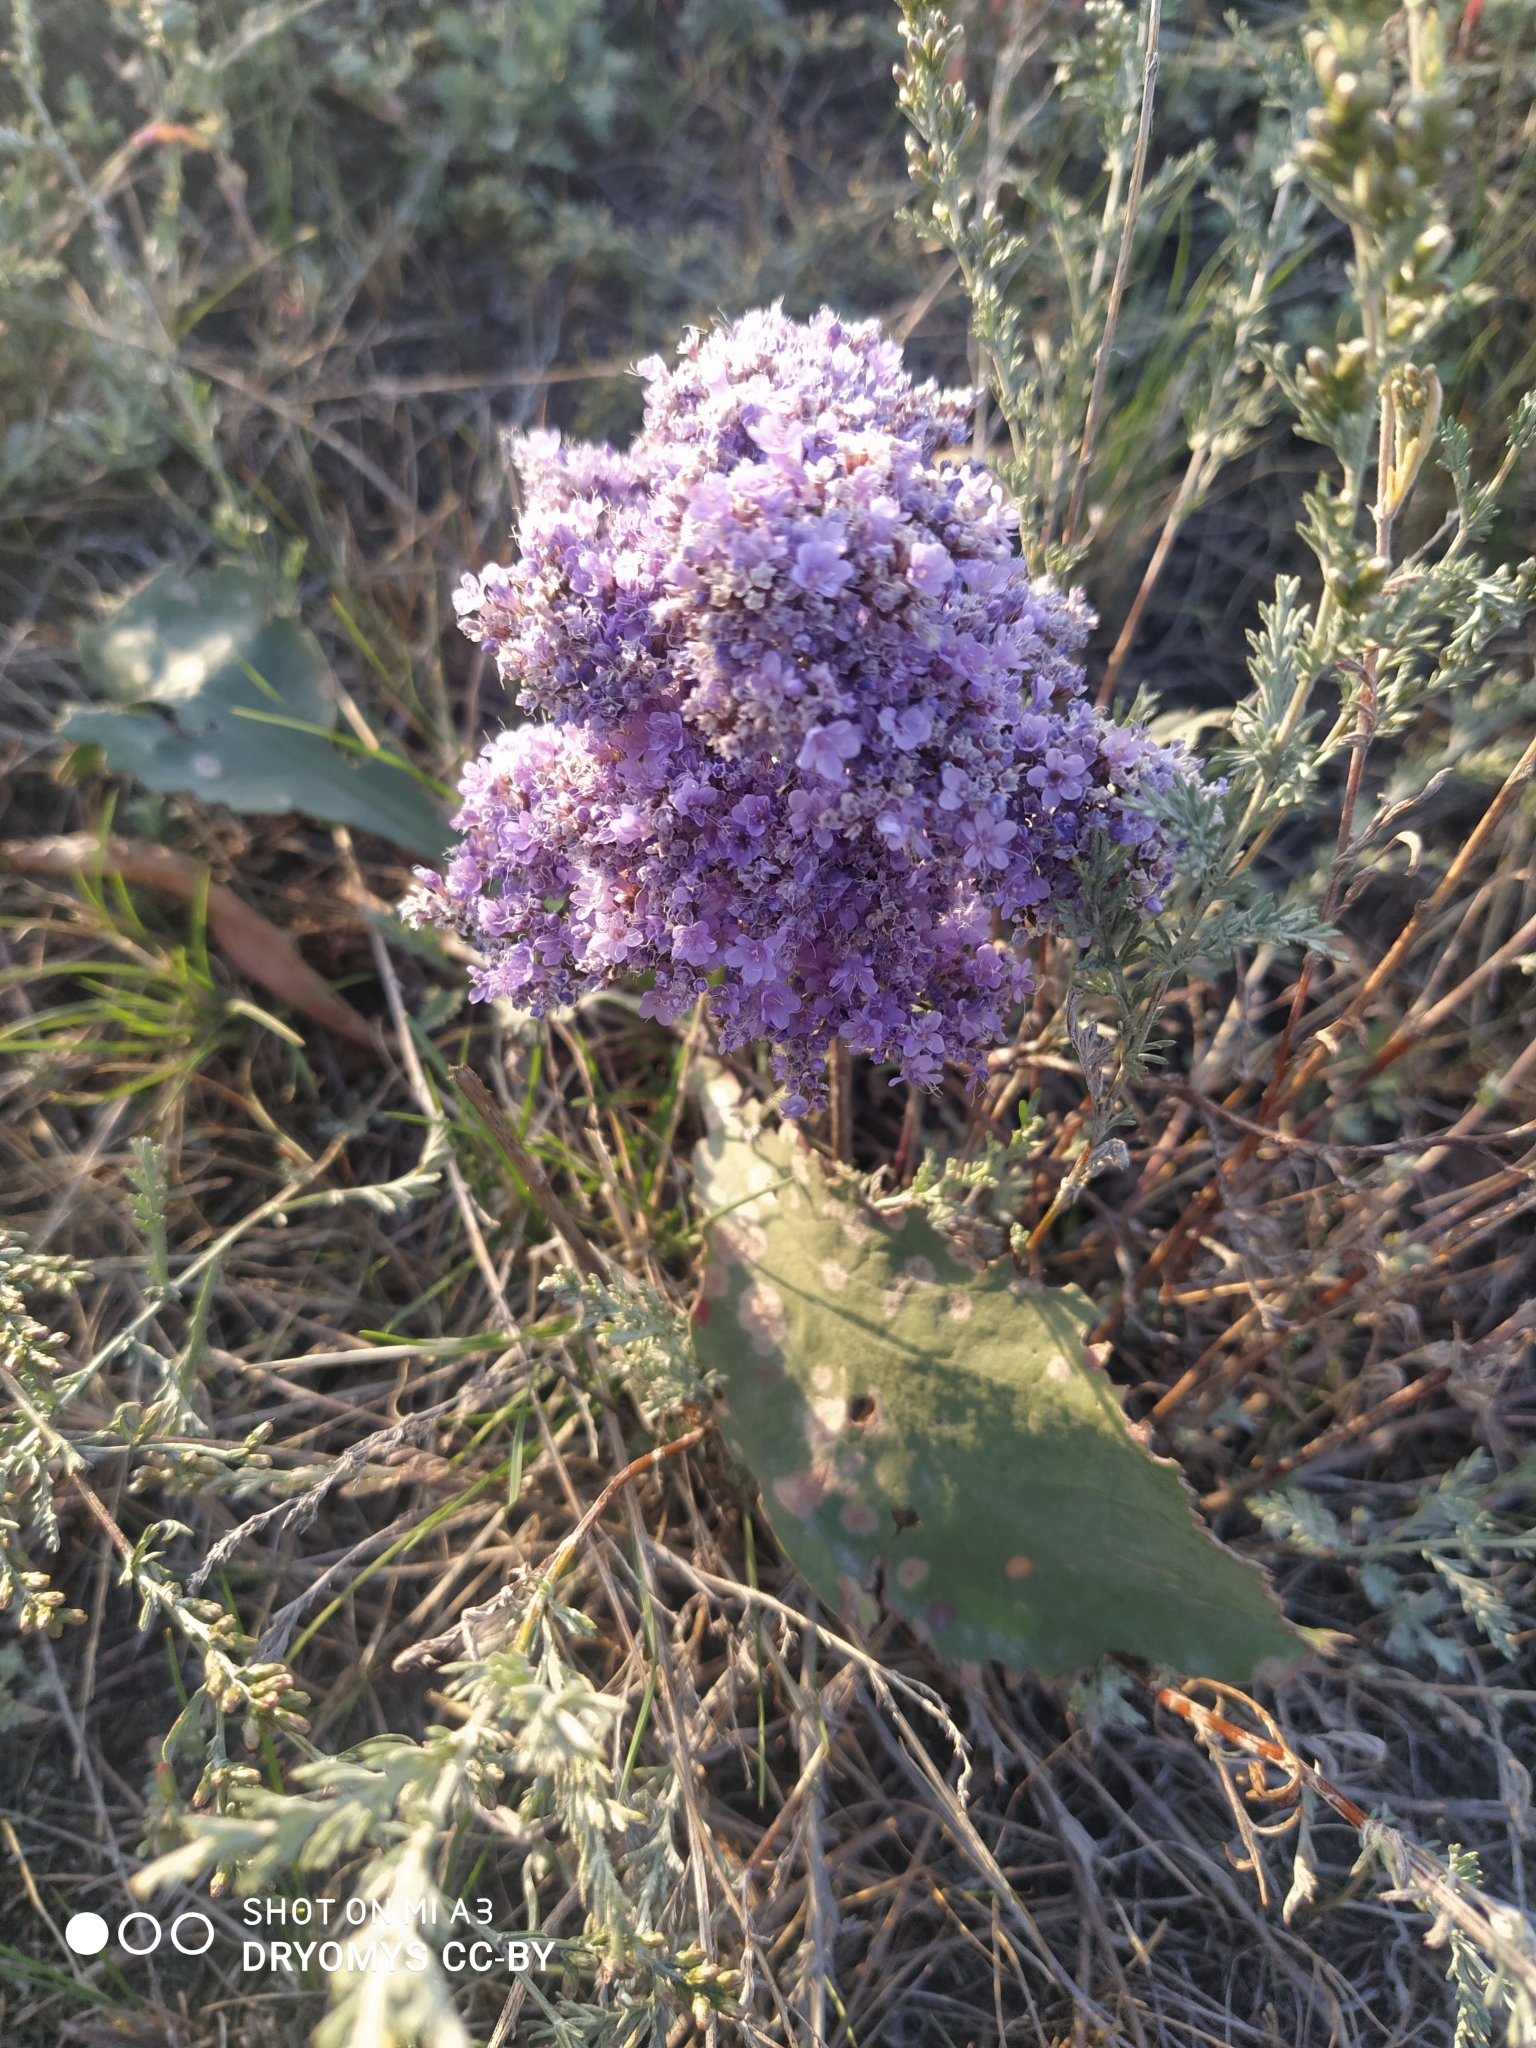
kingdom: Plantae
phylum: Tracheophyta
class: Magnoliopsida
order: Caryophyllales
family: Plumbaginaceae
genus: Limonium
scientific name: Limonium gmelini
